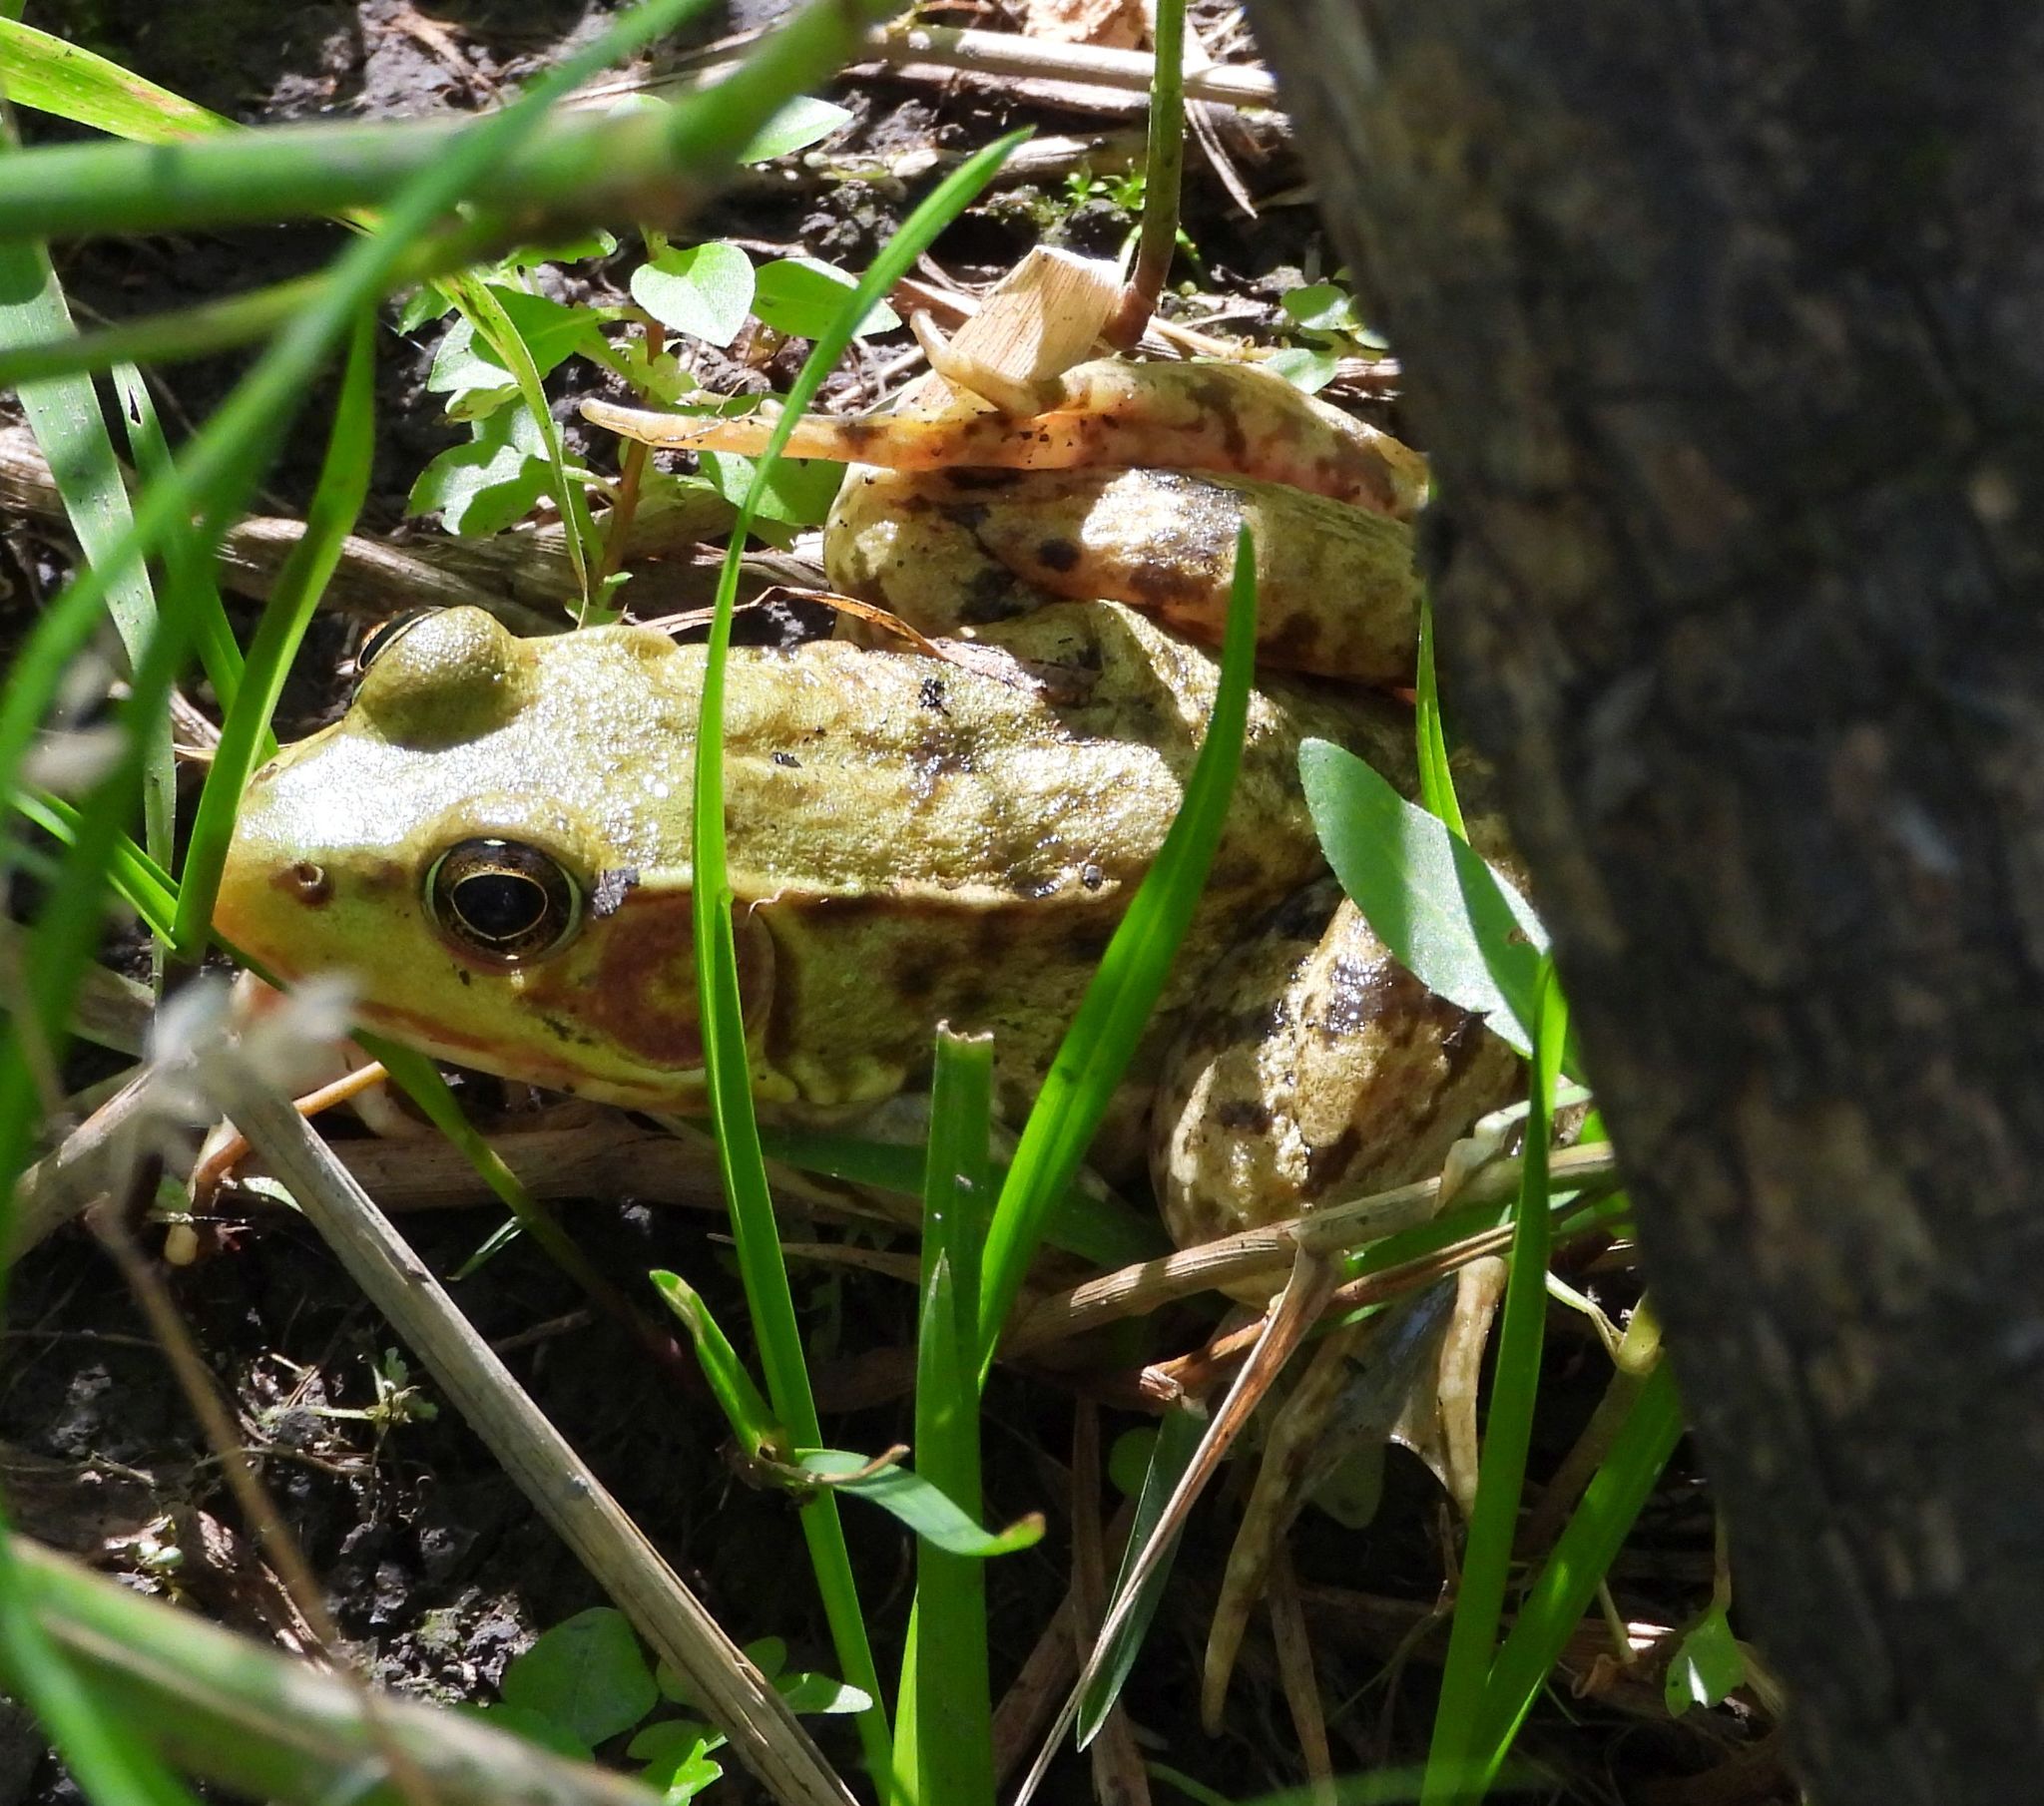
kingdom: Animalia
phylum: Chordata
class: Amphibia
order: Anura
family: Ranidae
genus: Lithobates
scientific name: Lithobates clamitans
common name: Green frog
